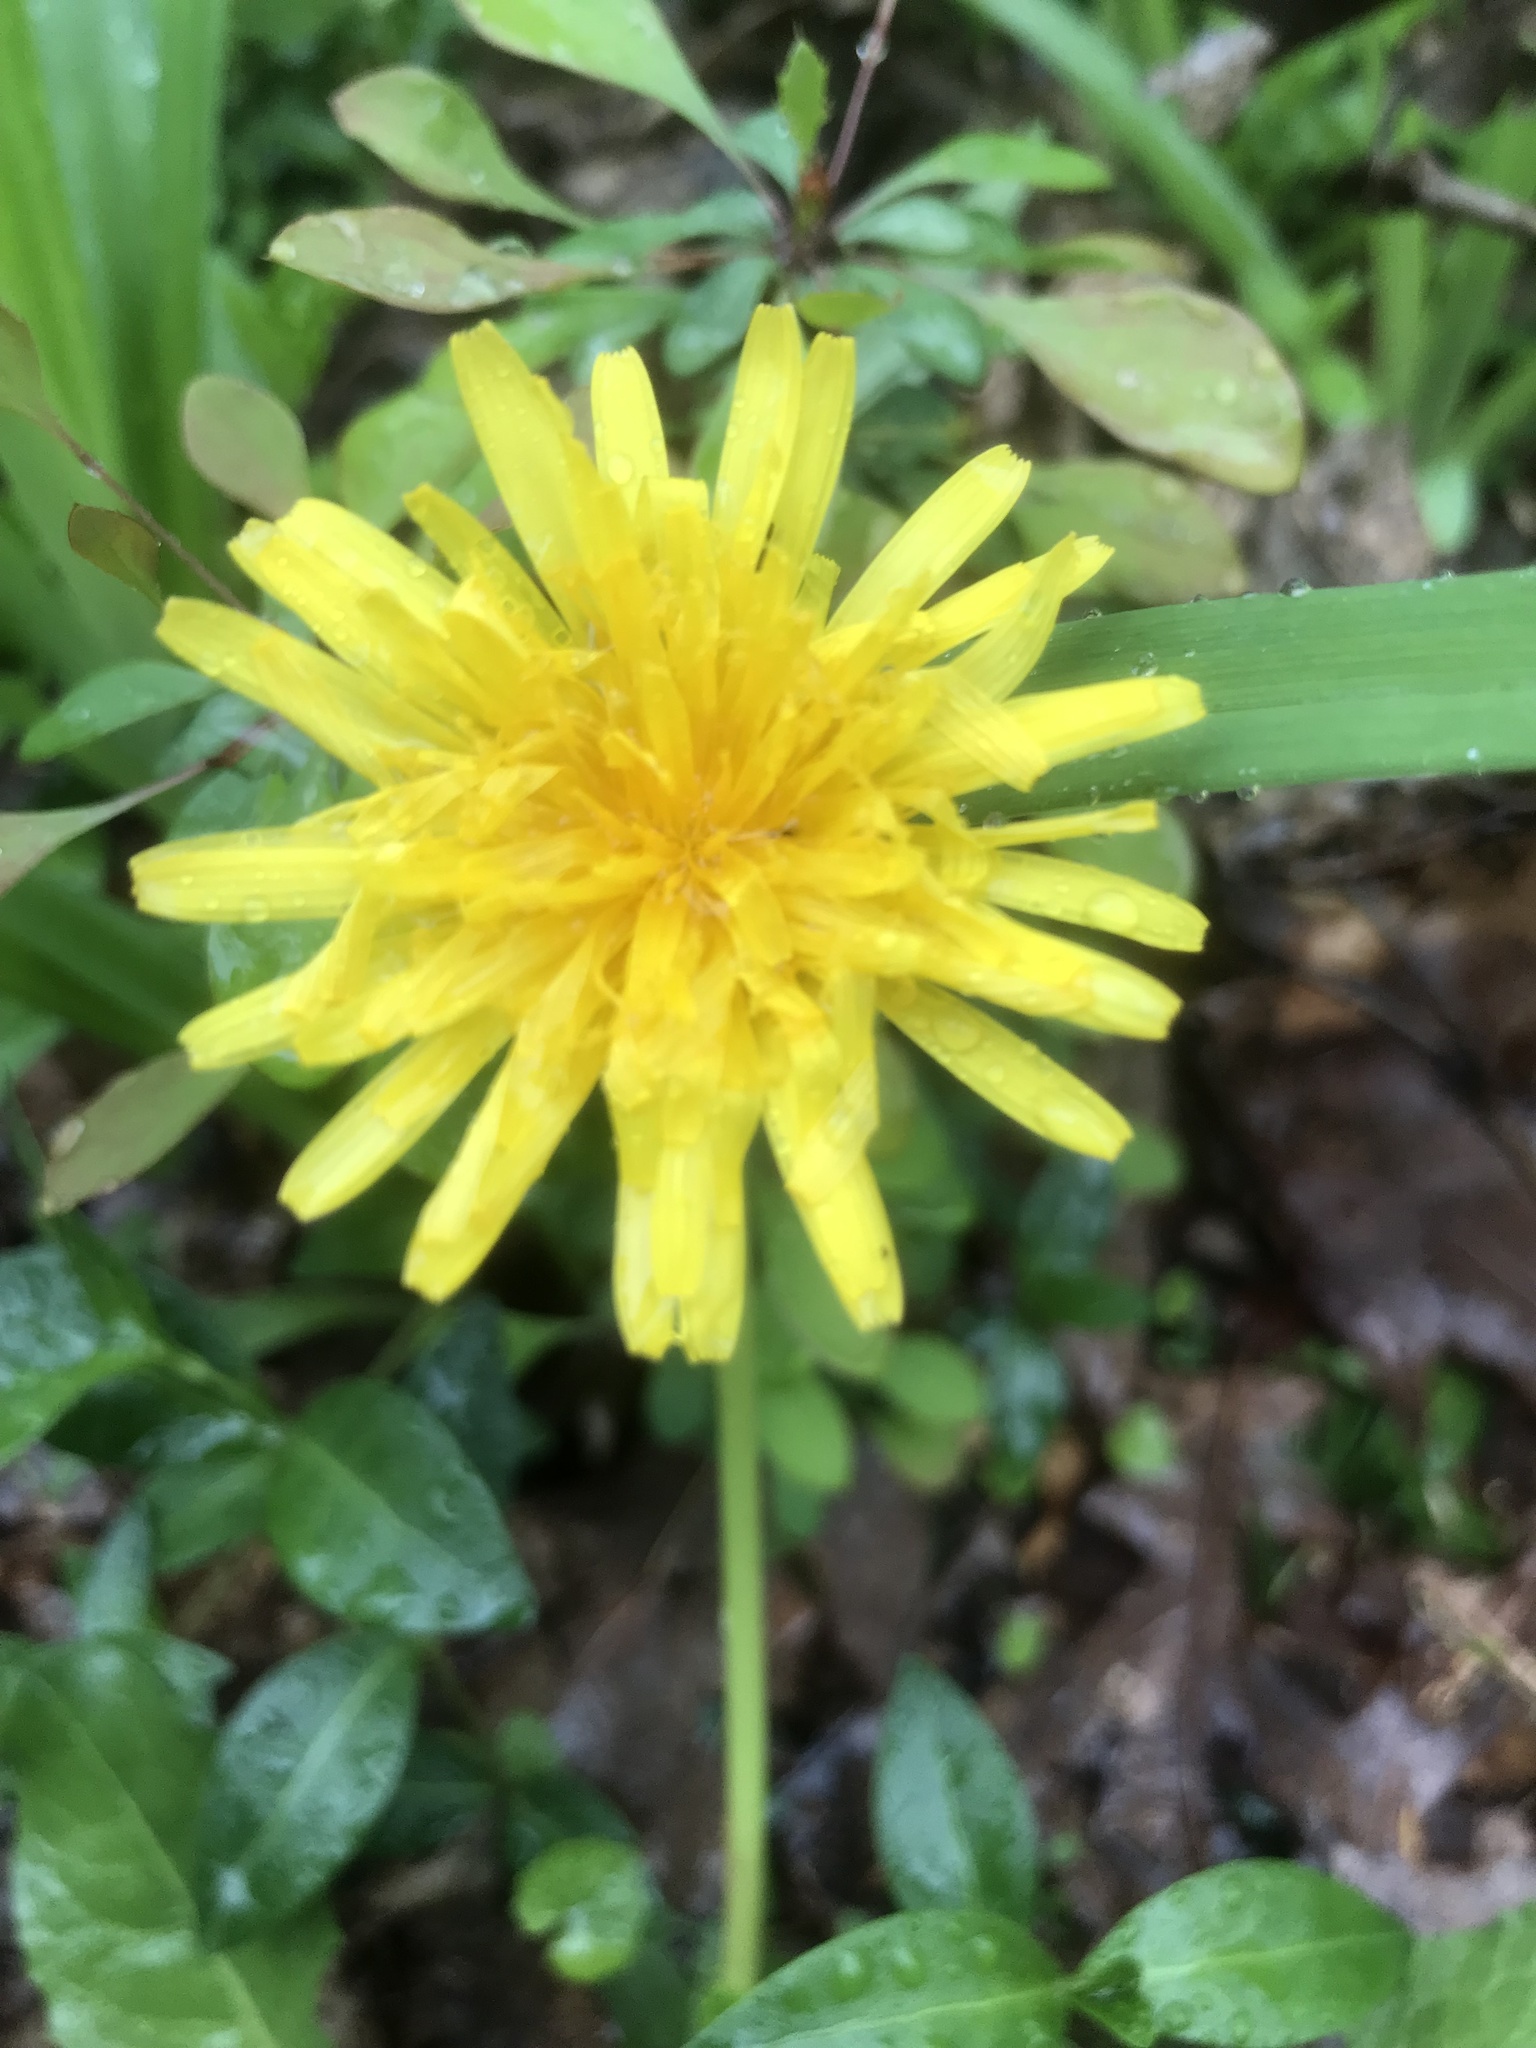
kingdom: Plantae
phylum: Tracheophyta
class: Magnoliopsida
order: Asterales
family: Asteraceae
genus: Taraxacum
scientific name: Taraxacum officinale
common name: Common dandelion
